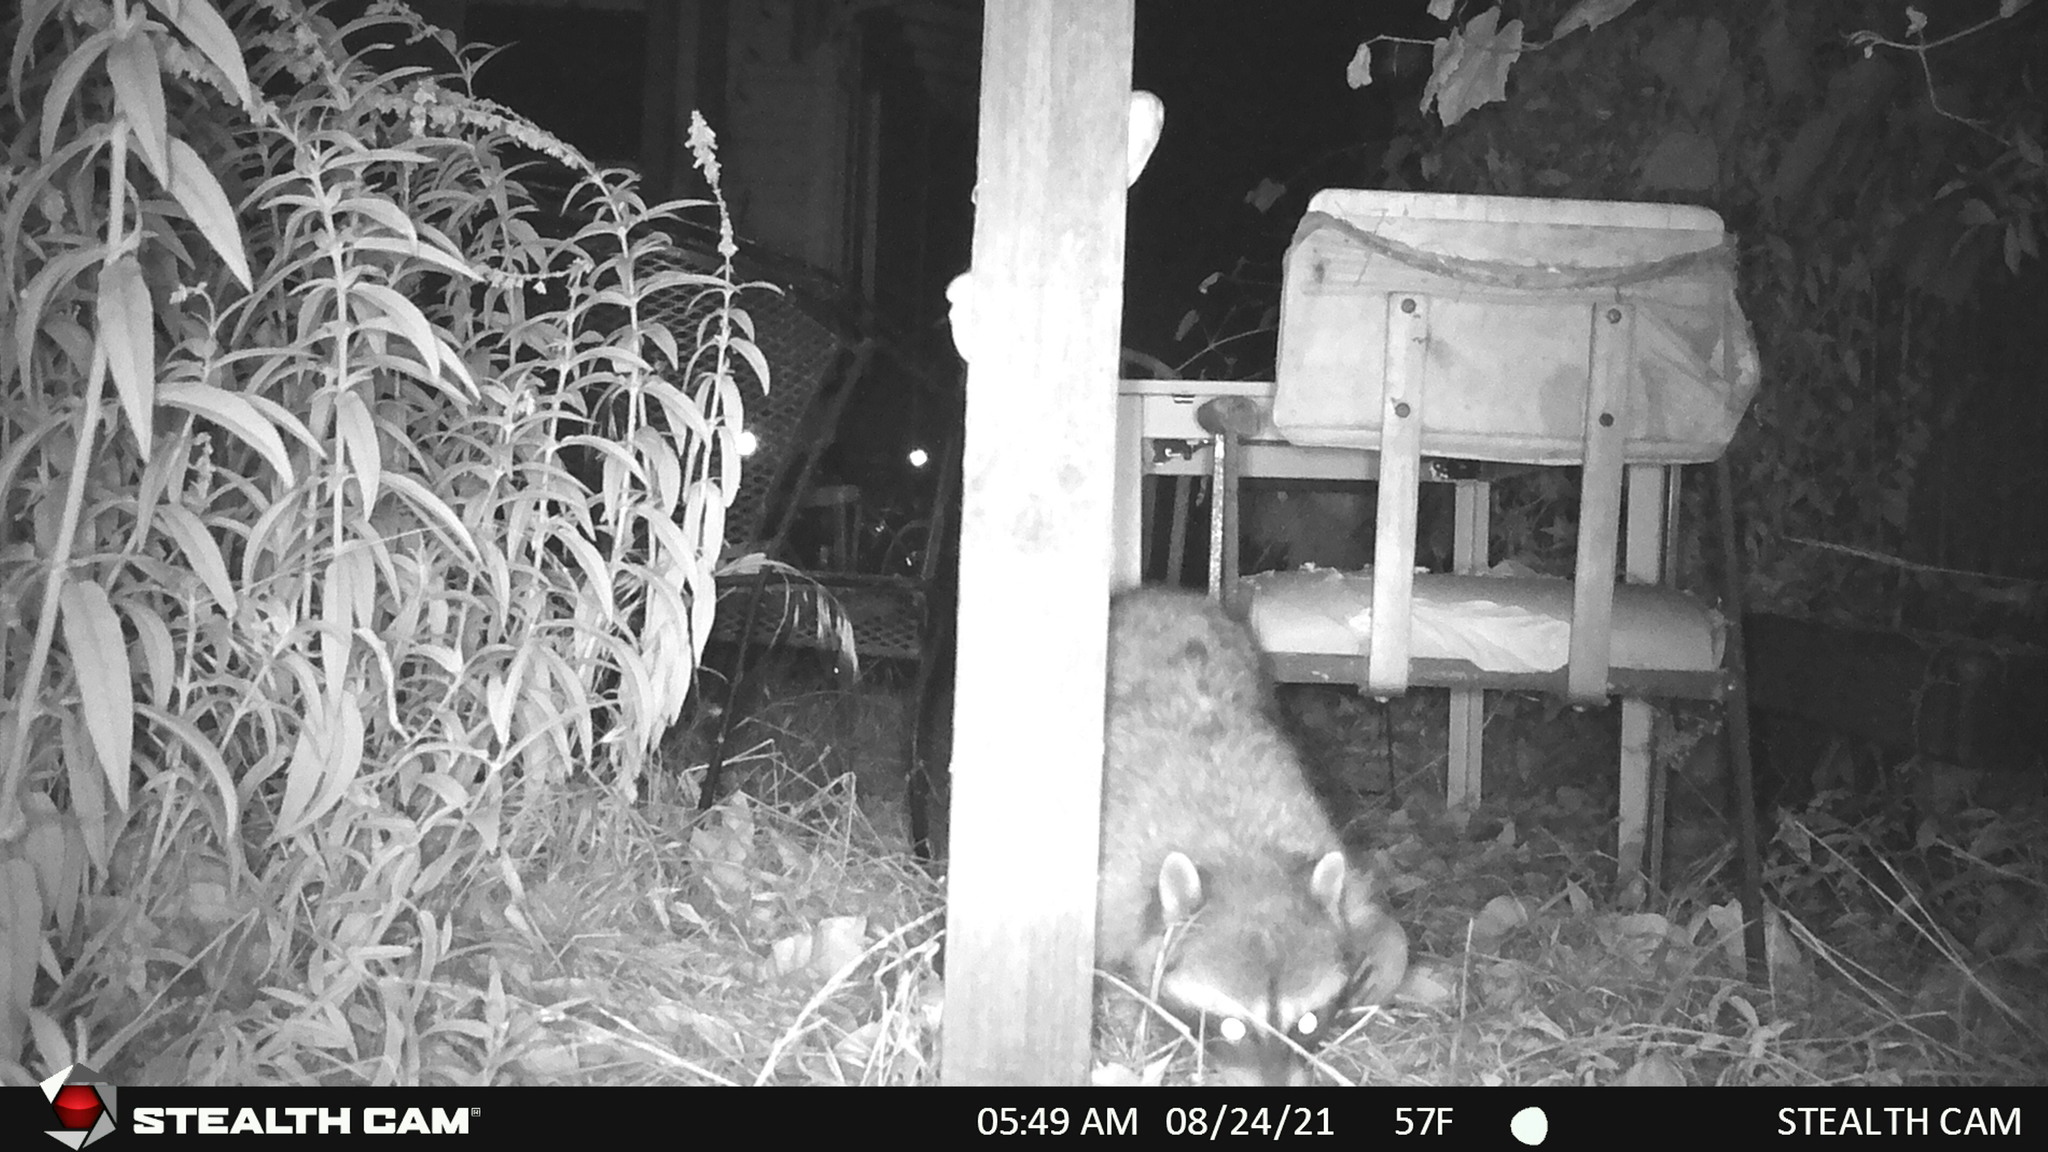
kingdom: Animalia
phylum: Chordata
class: Mammalia
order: Carnivora
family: Procyonidae
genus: Procyon
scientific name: Procyon lotor
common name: Raccoon
